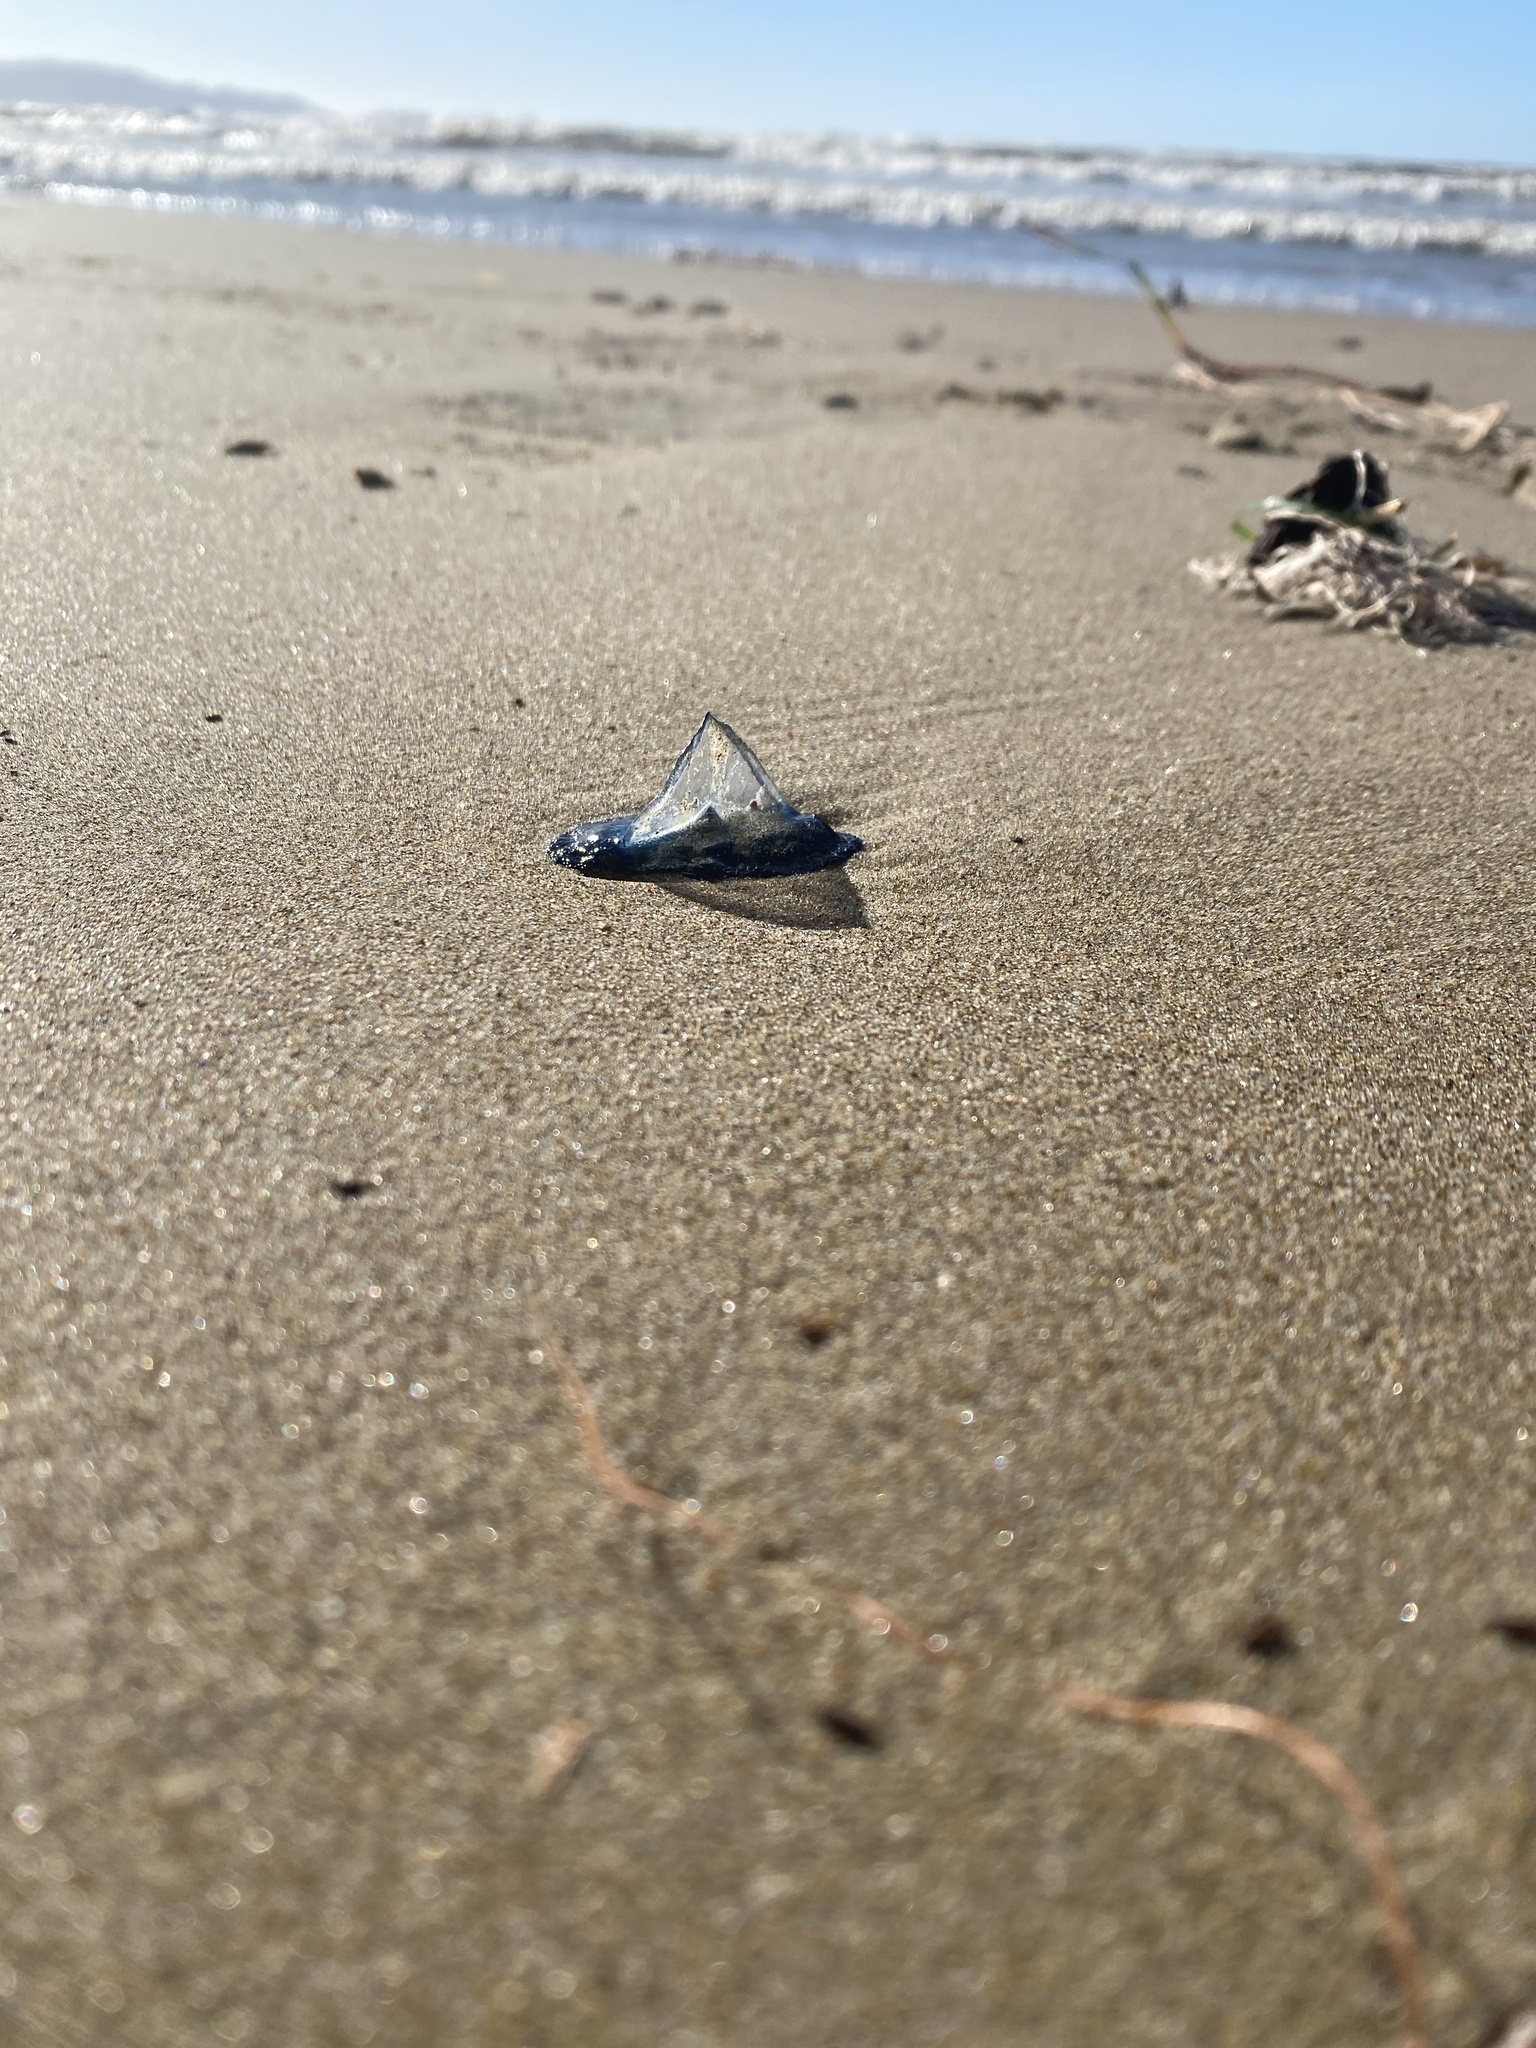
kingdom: Animalia
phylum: Cnidaria
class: Hydrozoa
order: Anthoathecata
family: Porpitidae
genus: Velella
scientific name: Velella velella
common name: By-the-wind-sailor
